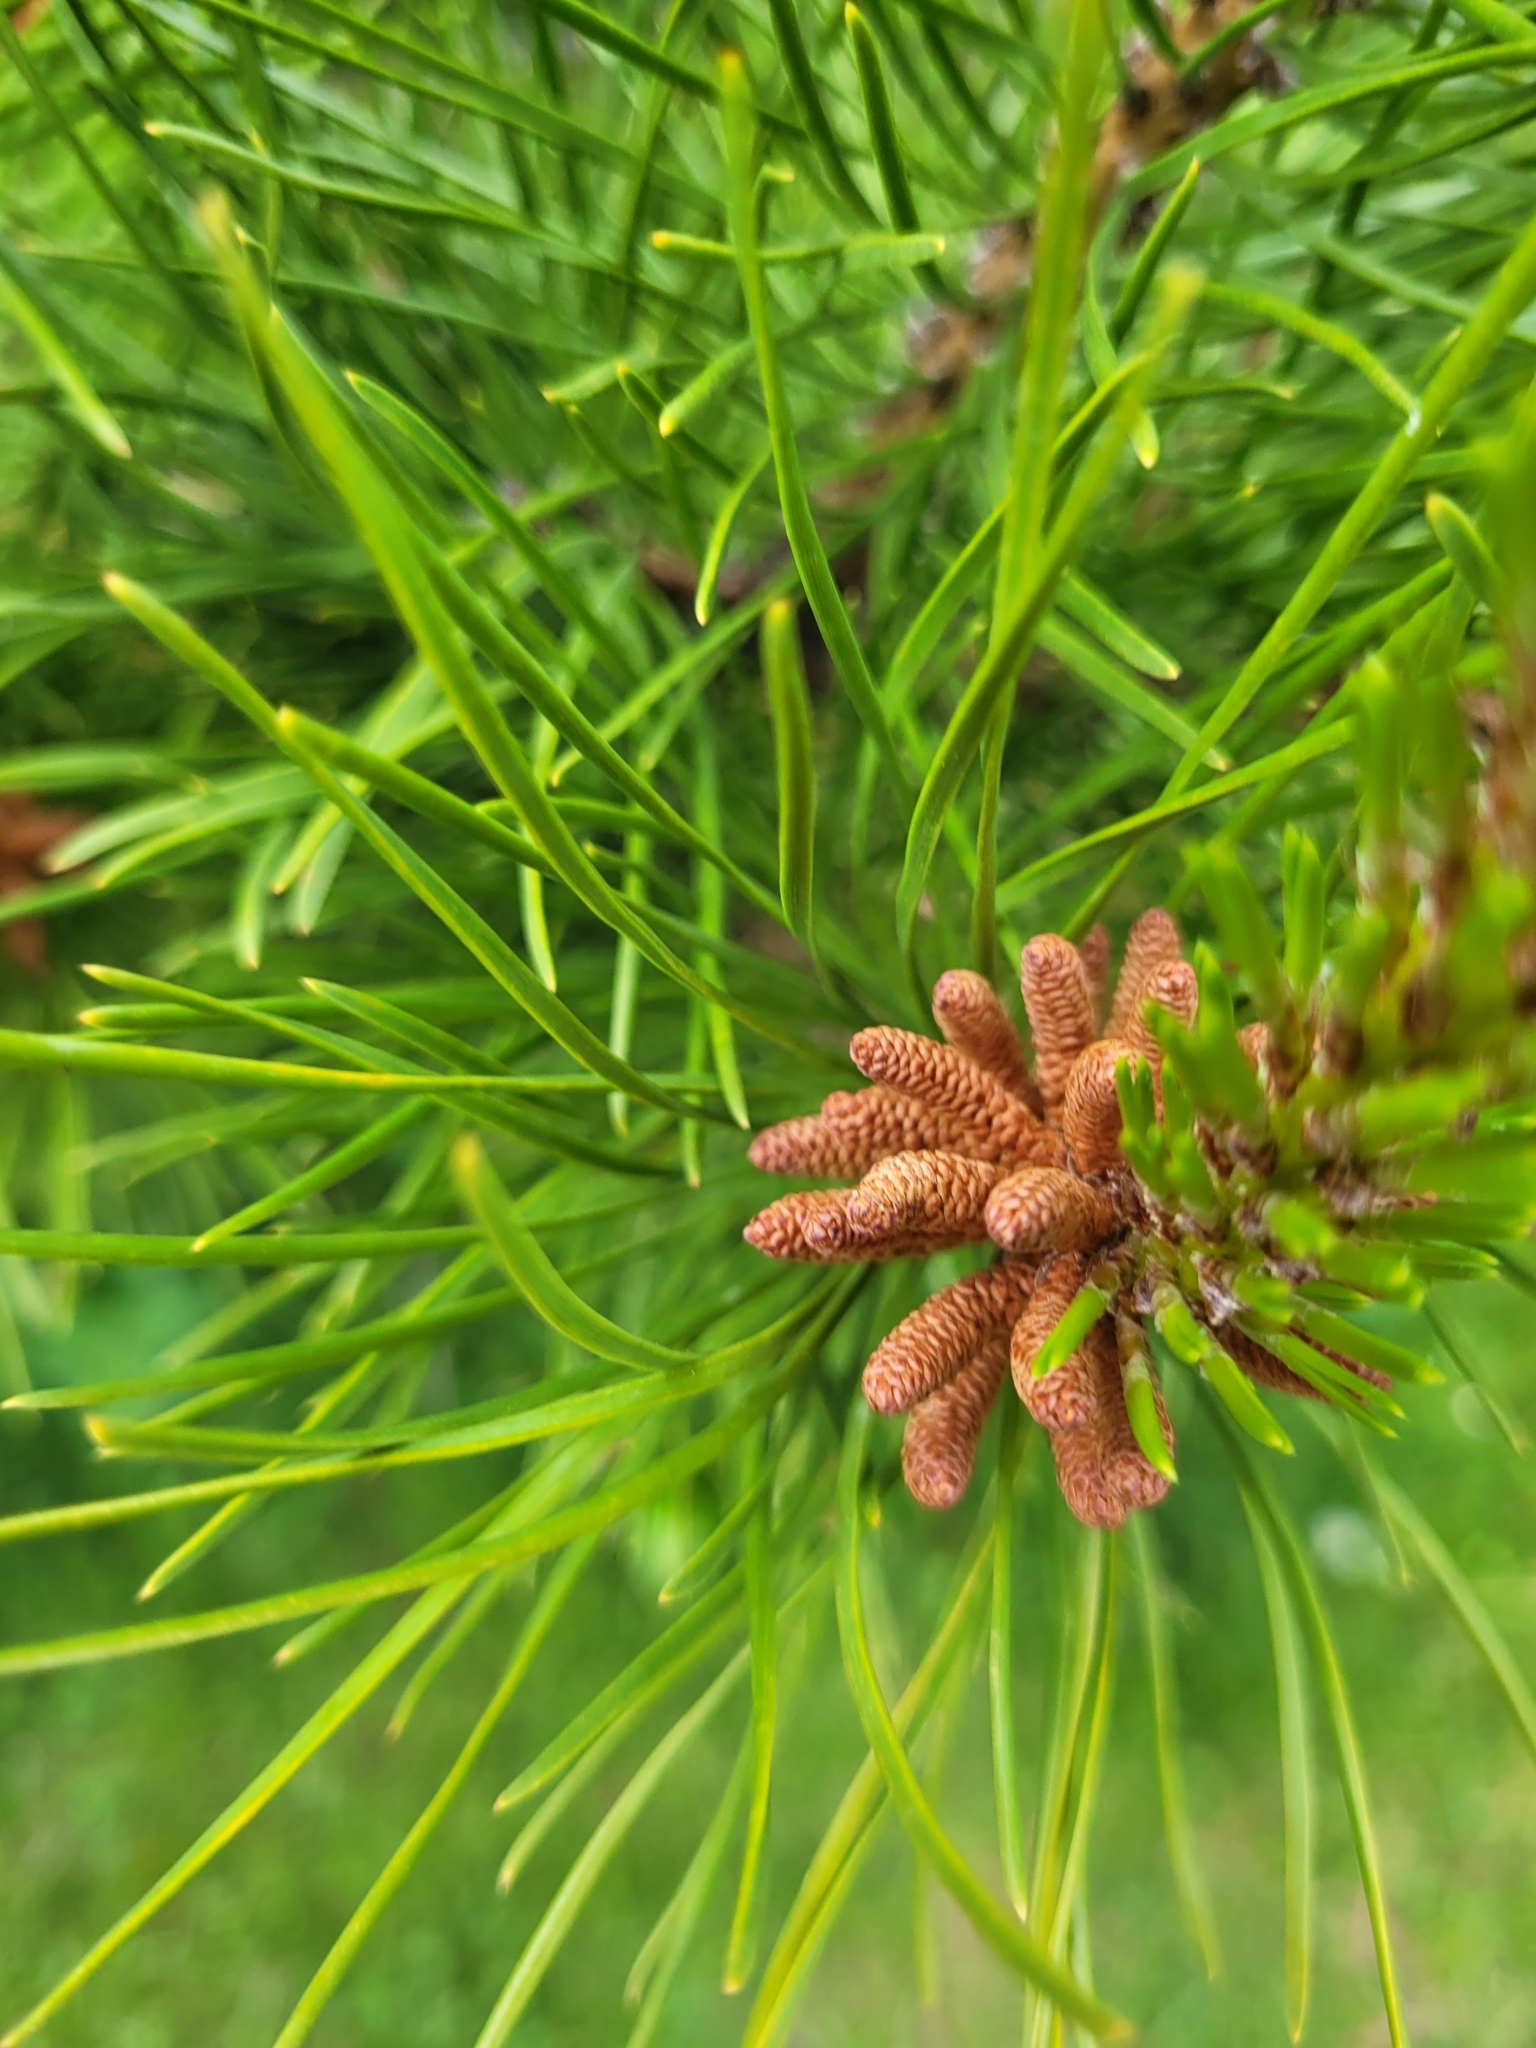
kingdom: Plantae
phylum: Tracheophyta
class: Pinopsida
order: Pinales
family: Pinaceae
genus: Pinus
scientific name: Pinus contorta
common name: Lodgepole pine
